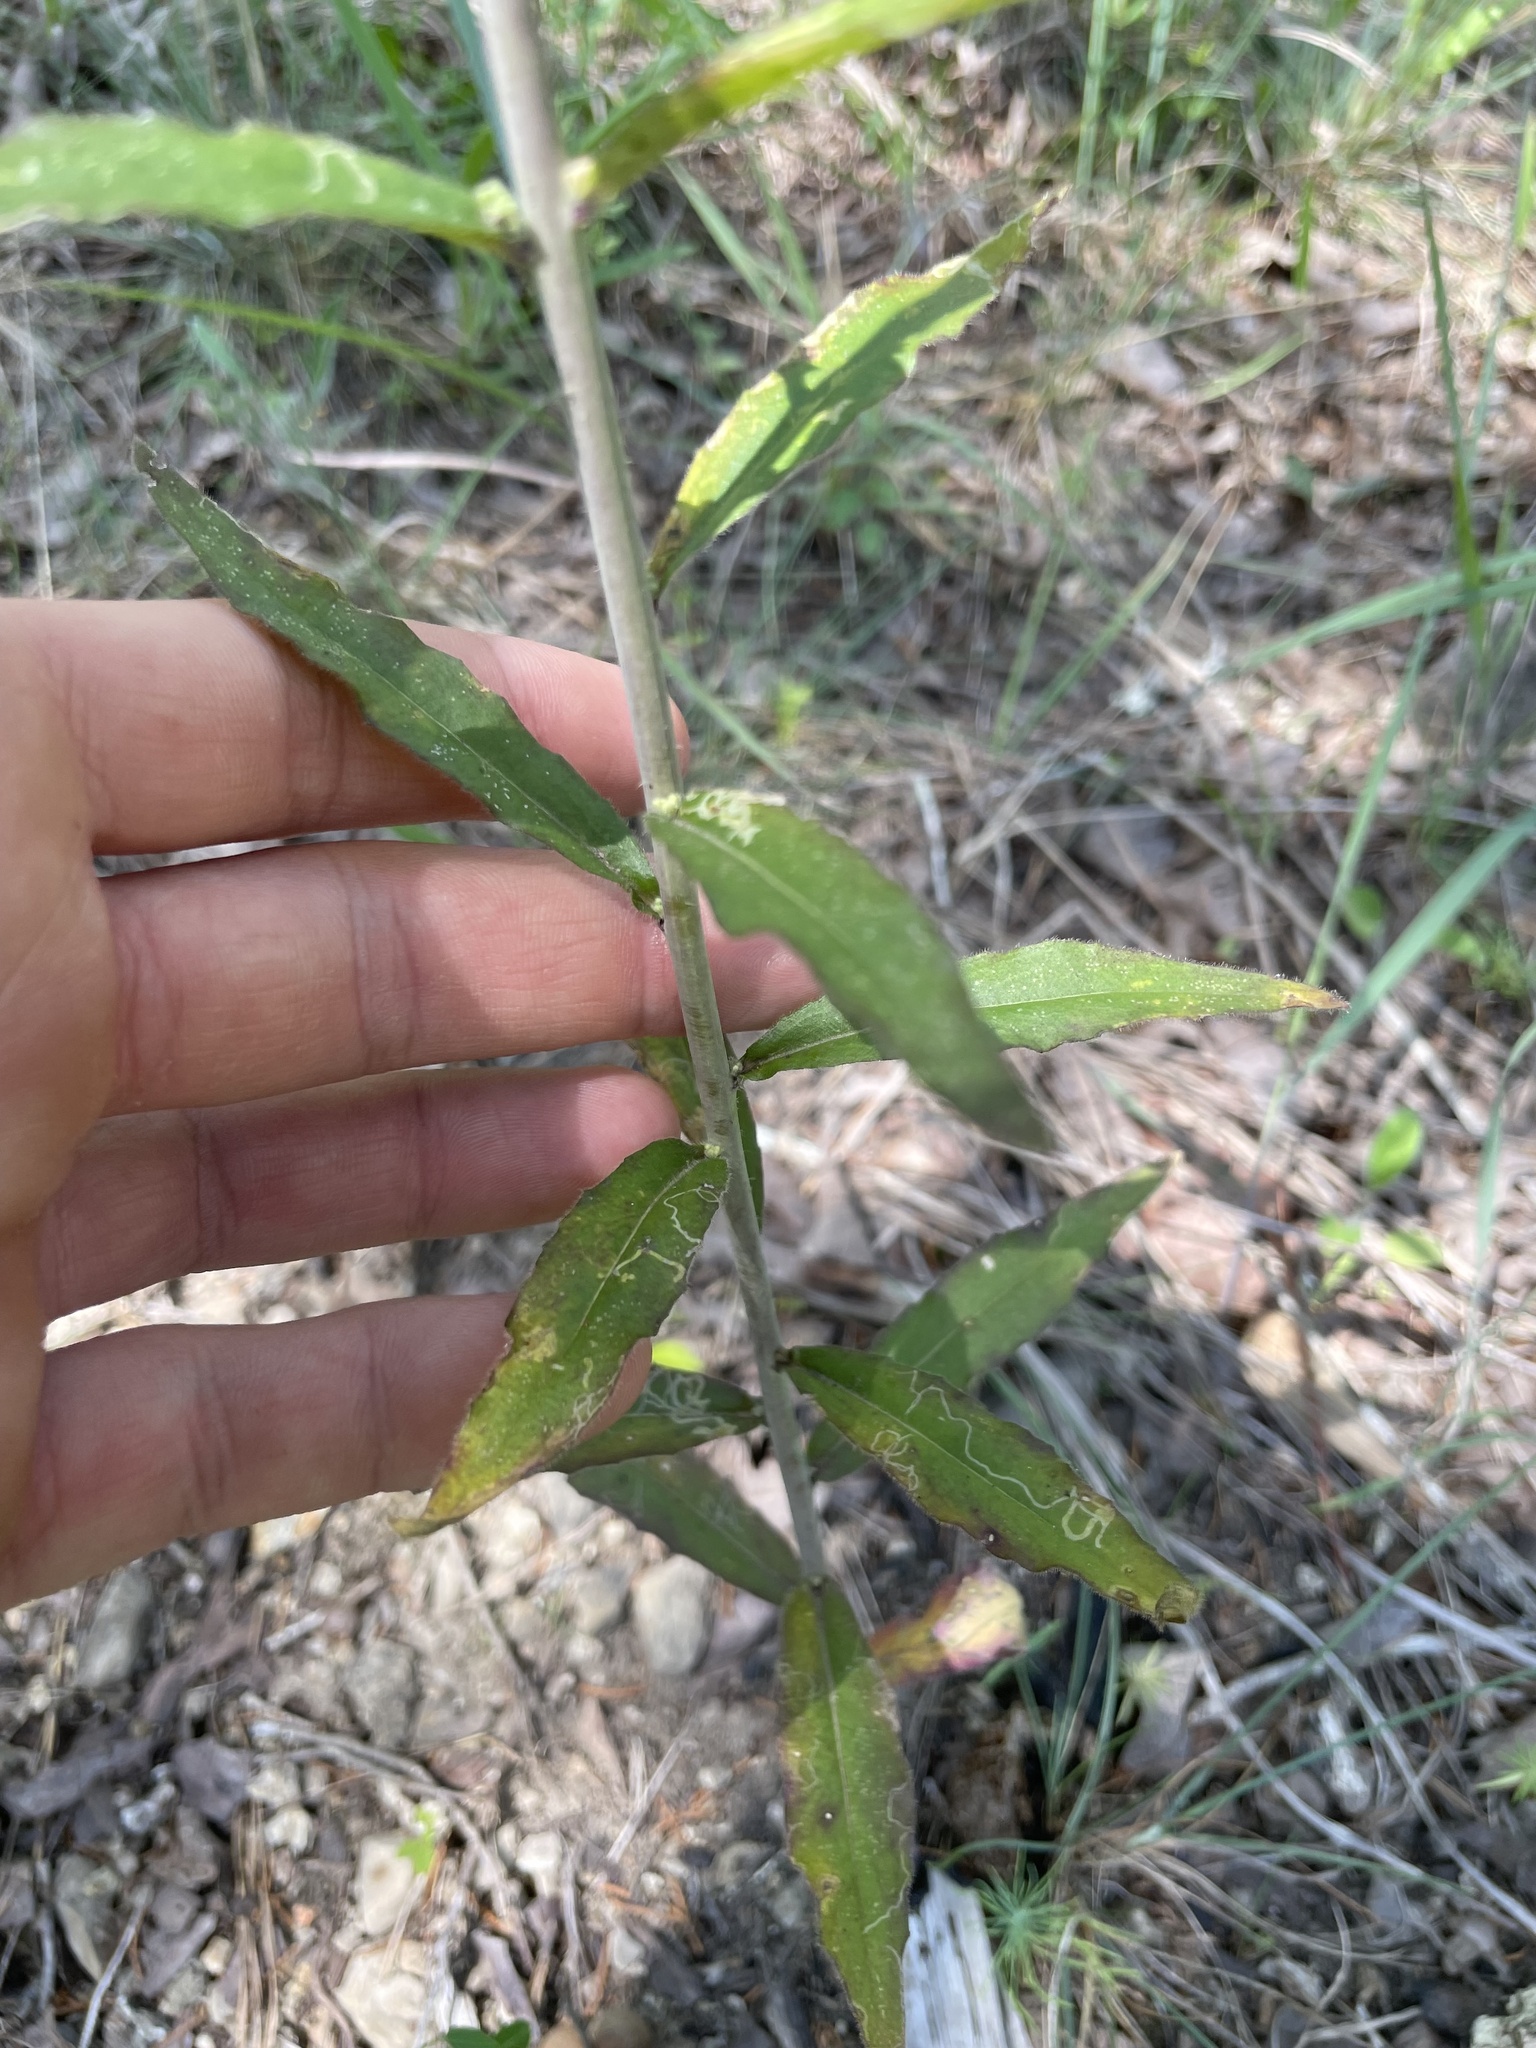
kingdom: Plantae
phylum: Tracheophyta
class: Magnoliopsida
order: Brassicales
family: Brassicaceae
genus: Borodinia
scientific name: Borodinia canadensis
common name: Sicklepod
